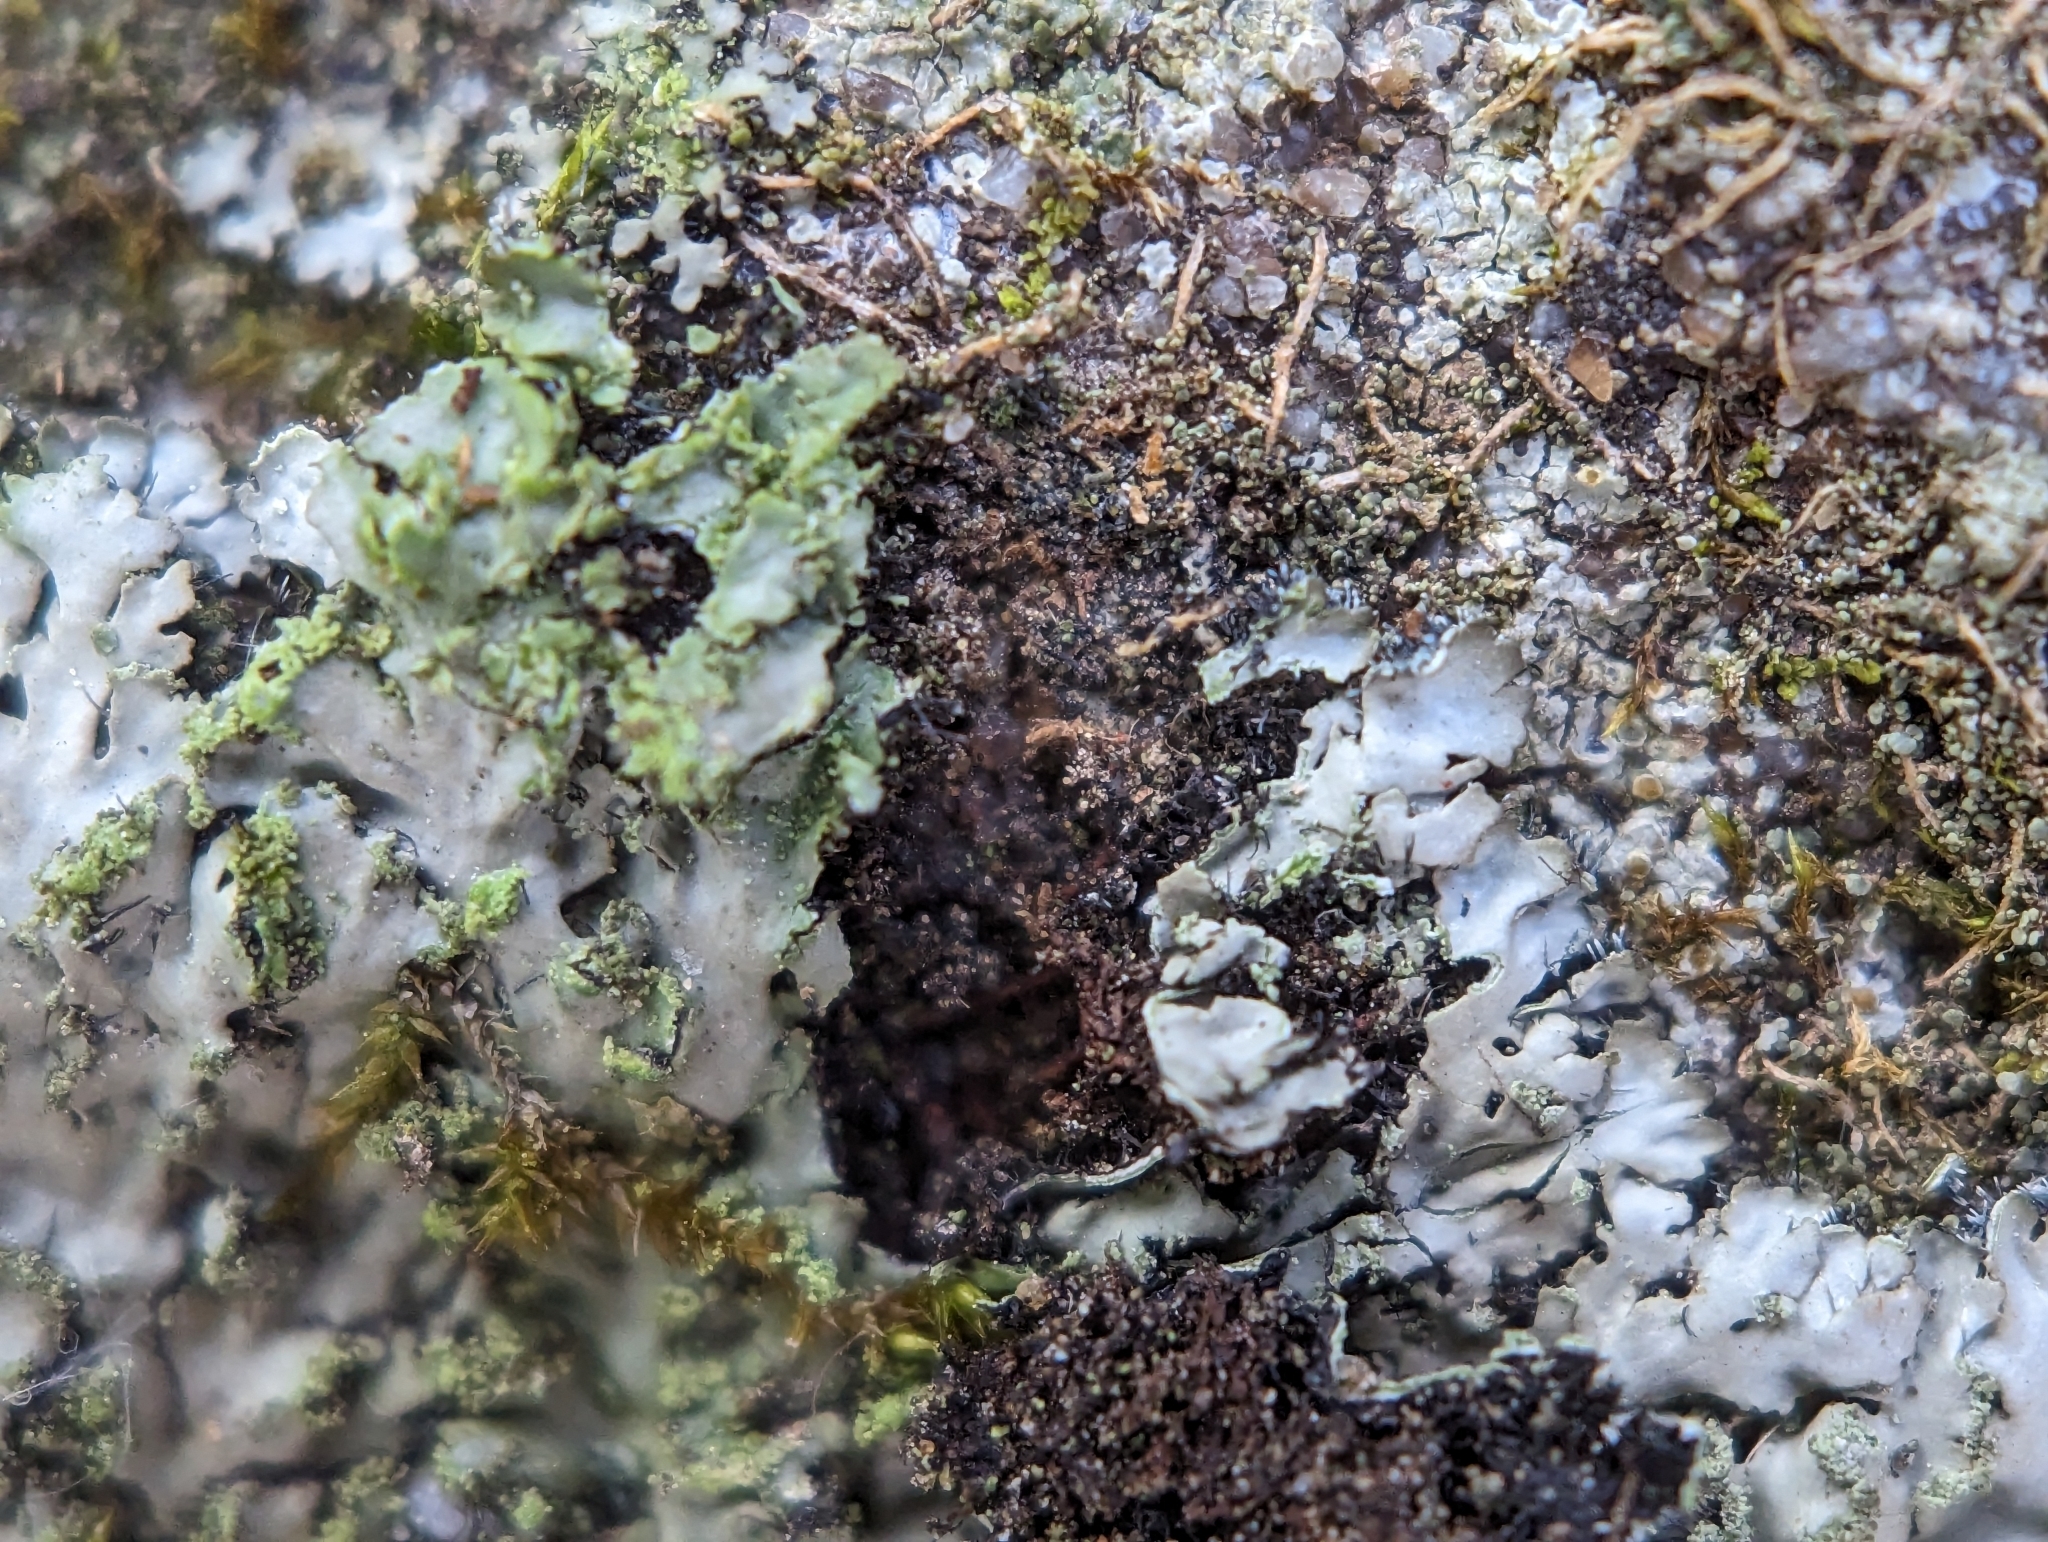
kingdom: Fungi
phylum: Ascomycota
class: Lecanoromycetes
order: Caliciales
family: Physciaceae
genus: Phaeophyscia
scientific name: Phaeophyscia adiastola
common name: Powder-tipped shadow lichen
